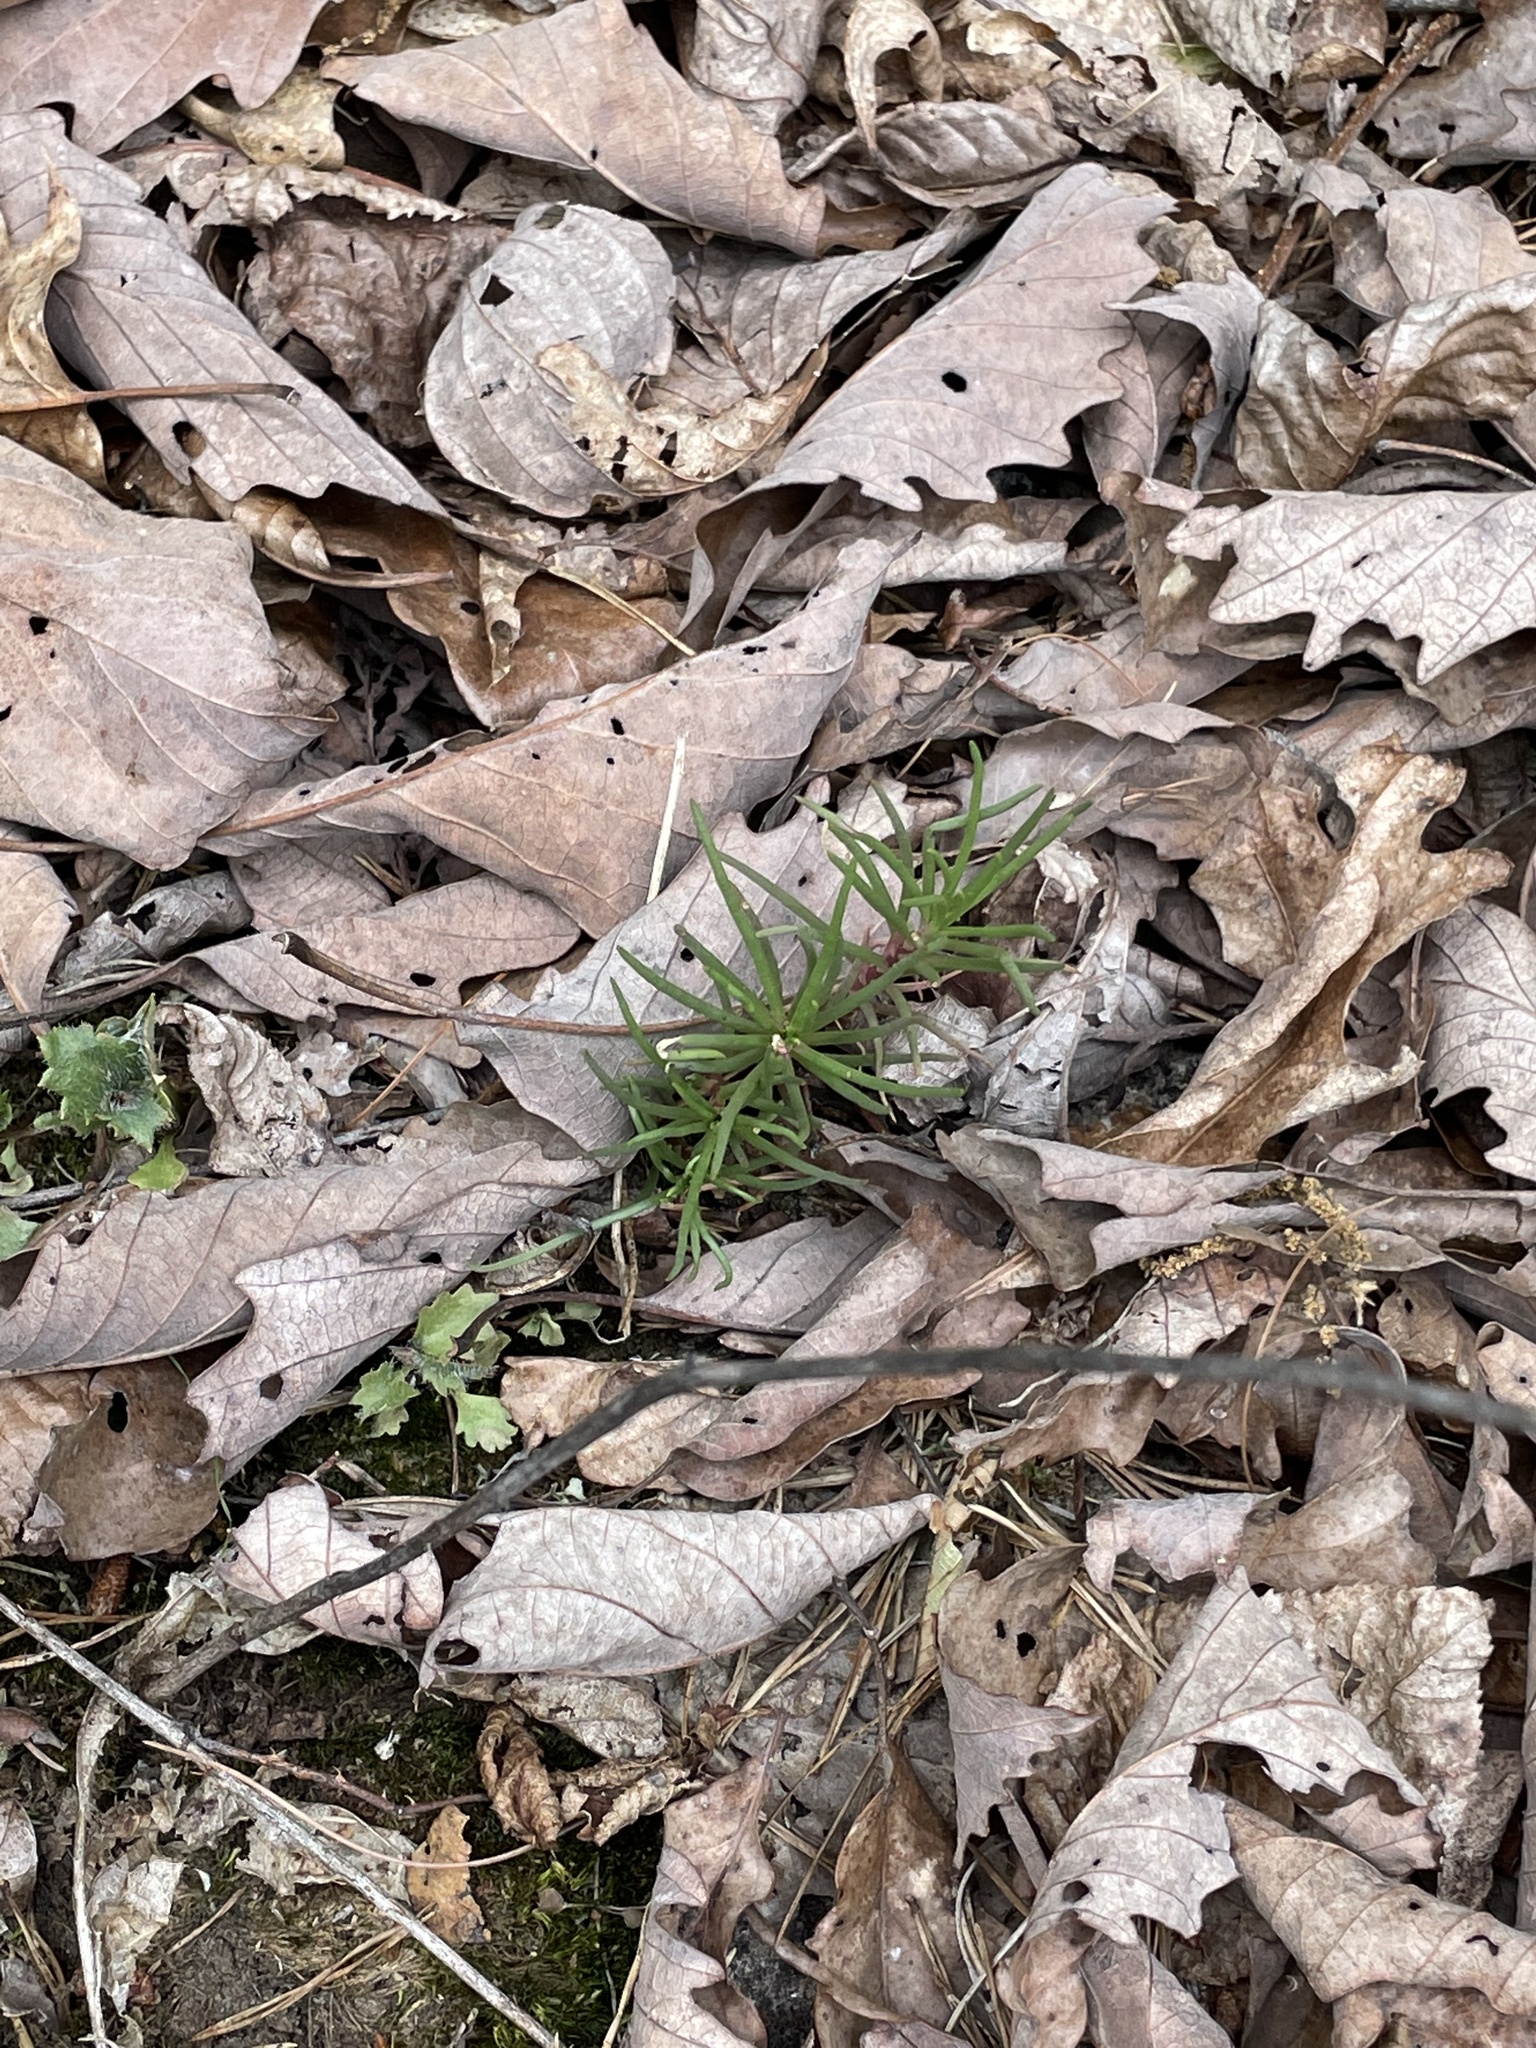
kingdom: Plantae
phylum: Tracheophyta
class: Magnoliopsida
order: Caryophyllales
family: Montiaceae
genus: Phemeranthus
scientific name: Phemeranthus teretifolius
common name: Quill fameflower
